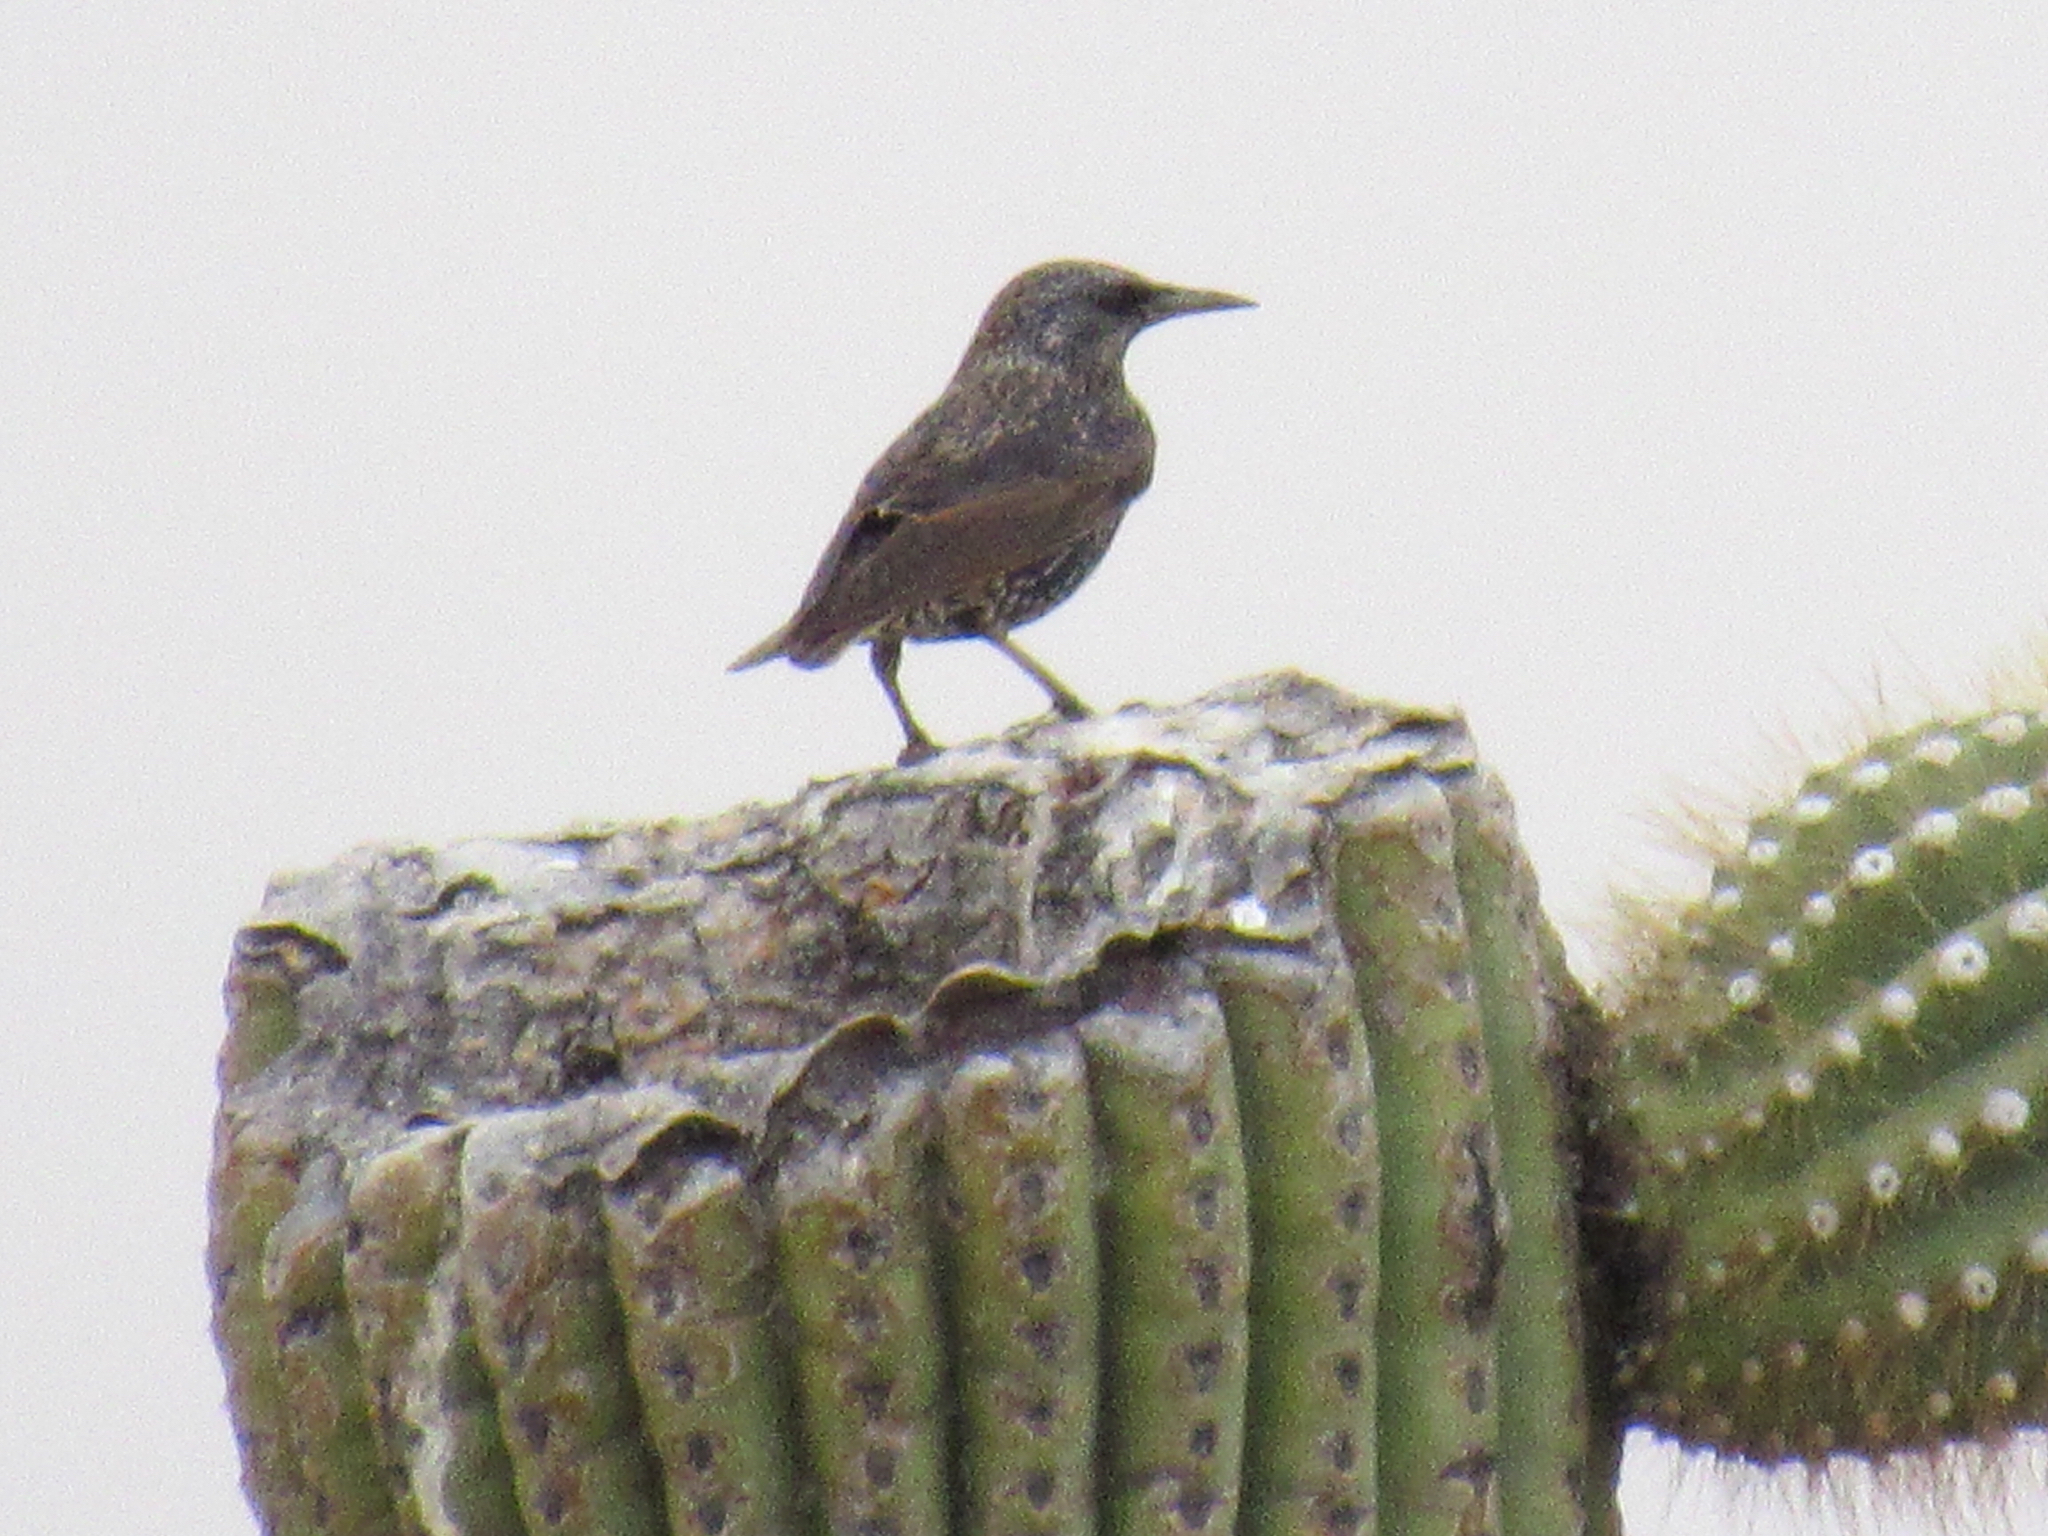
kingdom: Animalia
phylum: Chordata
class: Aves
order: Passeriformes
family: Sturnidae
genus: Sturnus
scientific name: Sturnus vulgaris
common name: Common starling
